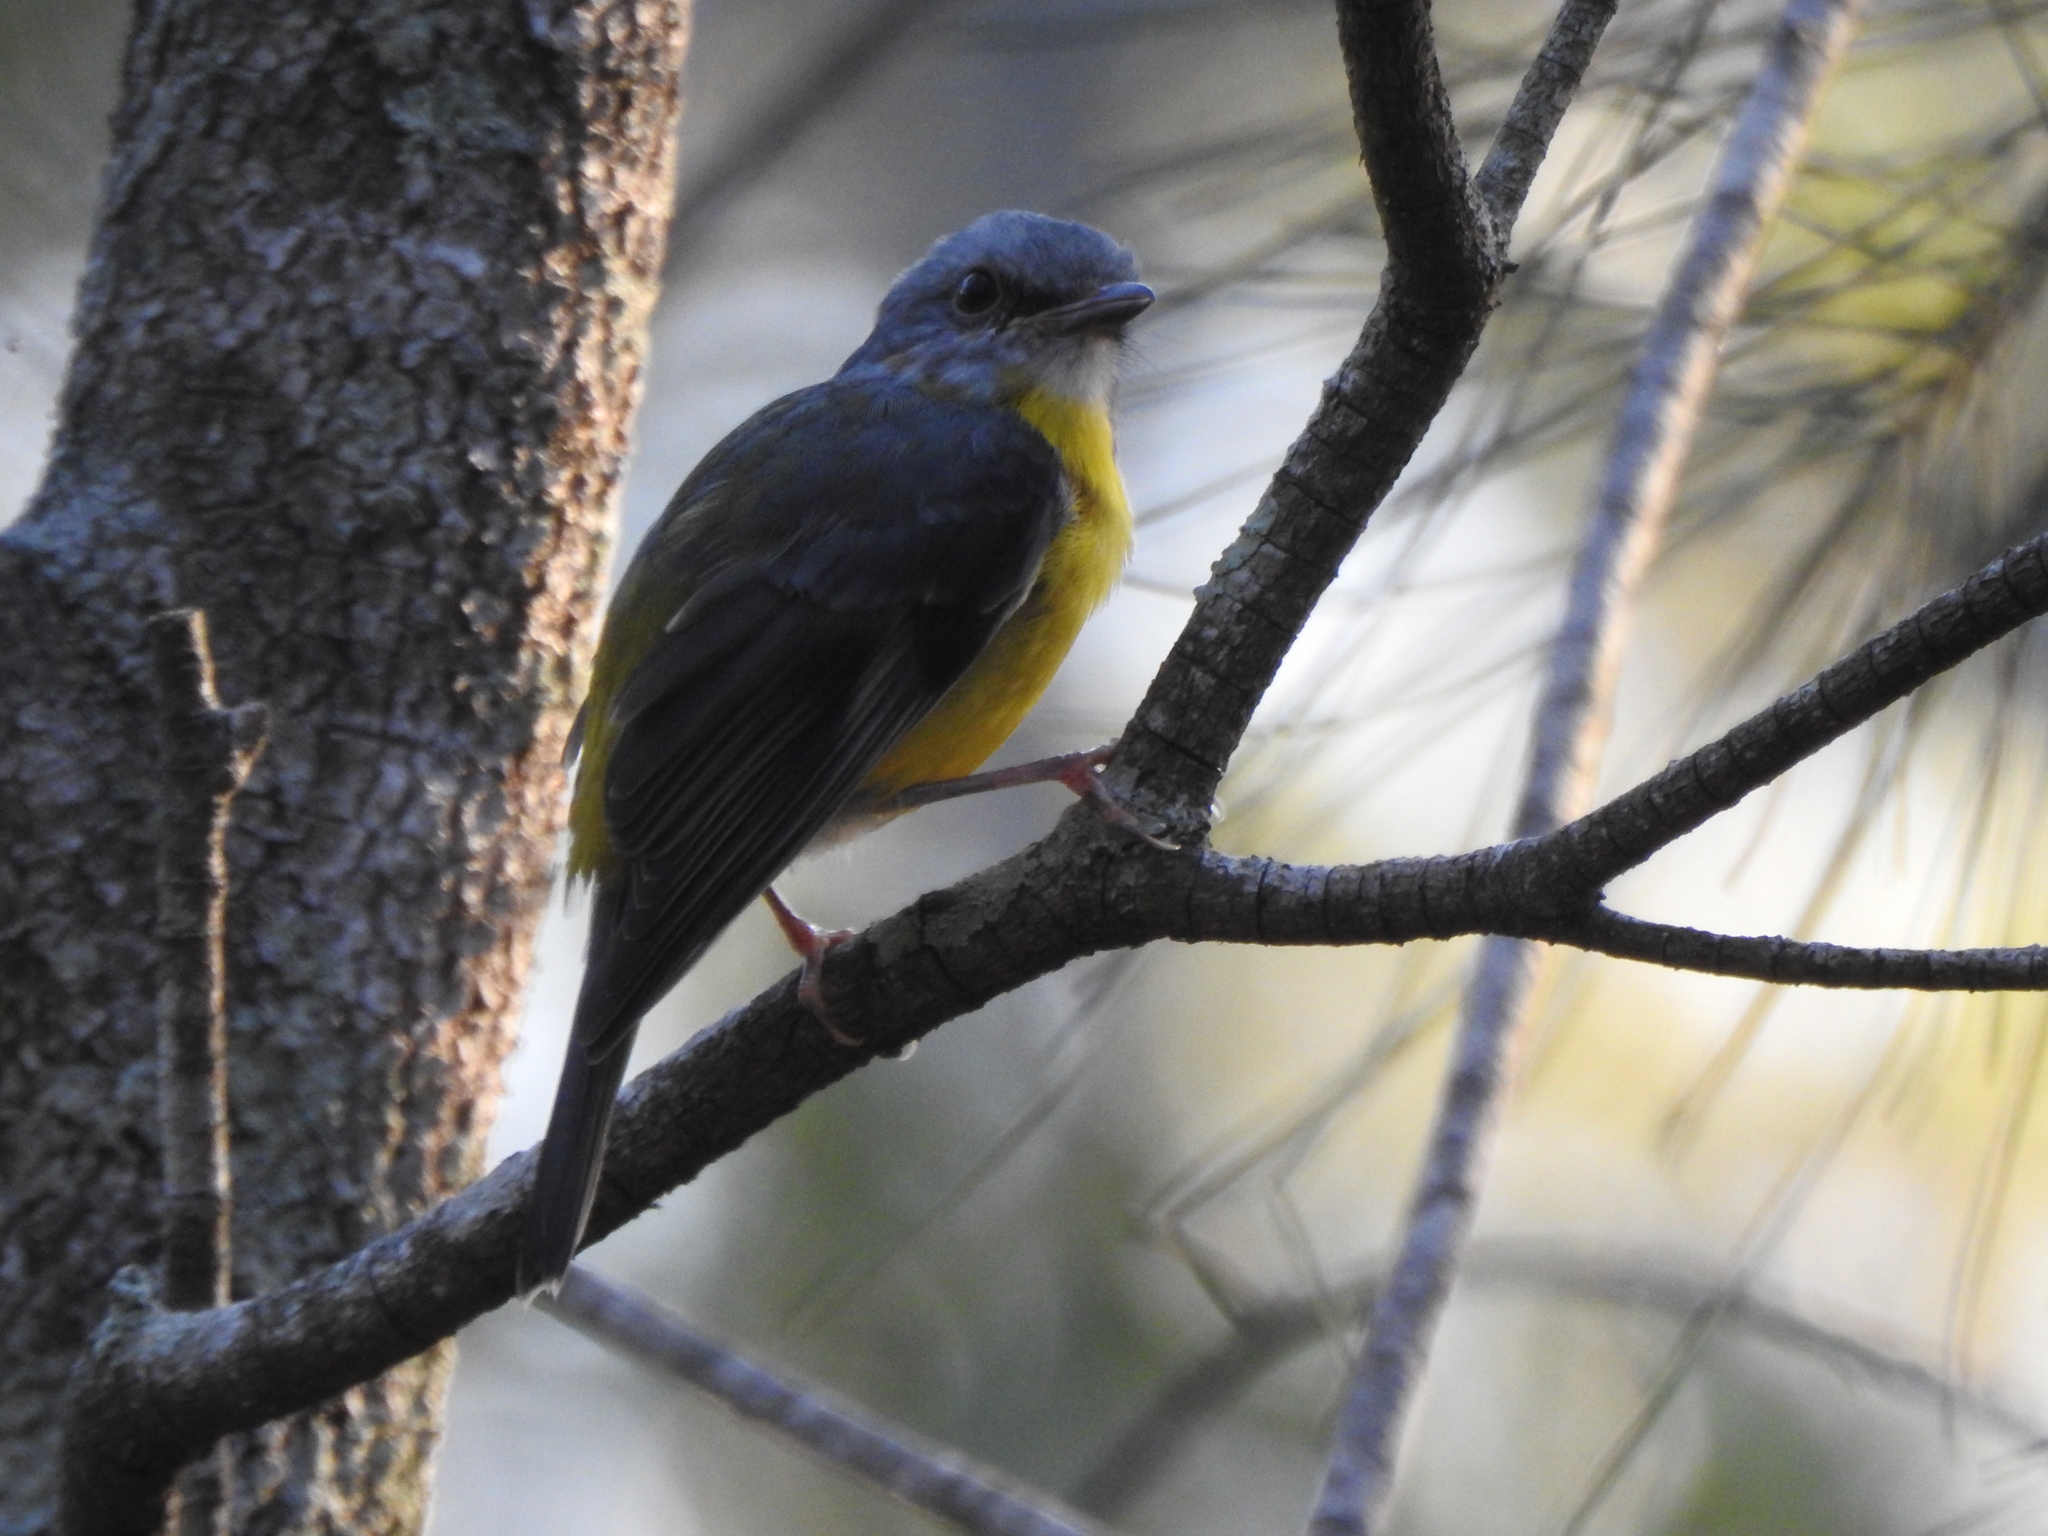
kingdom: Animalia
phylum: Chordata
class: Aves
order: Passeriformes
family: Petroicidae
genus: Eopsaltria
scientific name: Eopsaltria australis
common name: Eastern yellow robin
